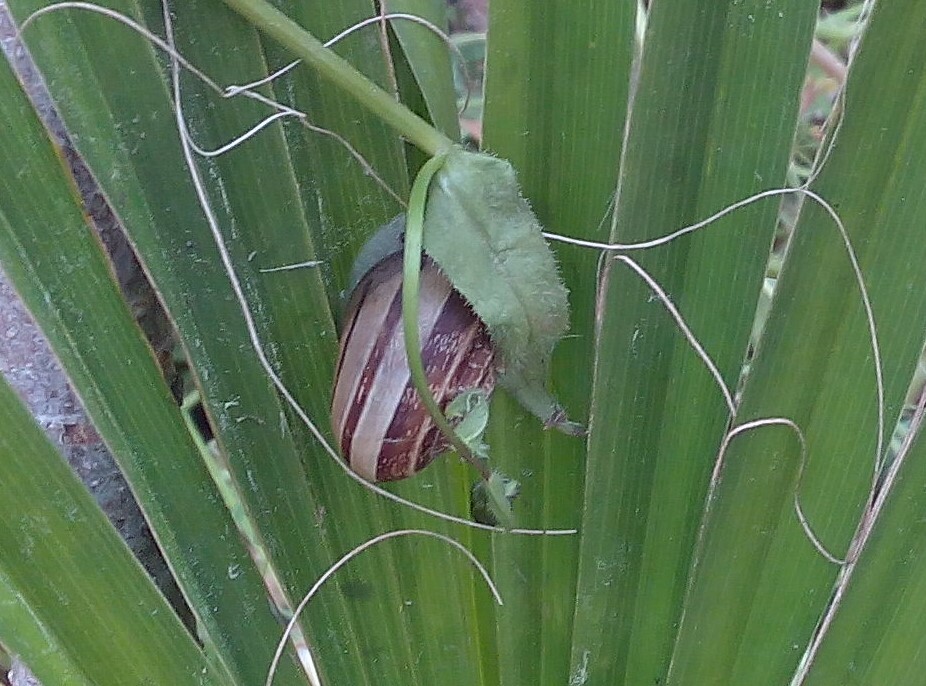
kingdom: Animalia
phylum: Mollusca
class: Gastropoda
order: Stylommatophora
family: Helicidae
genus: Eobania
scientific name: Eobania vermiculata
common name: Chocolateband snail
